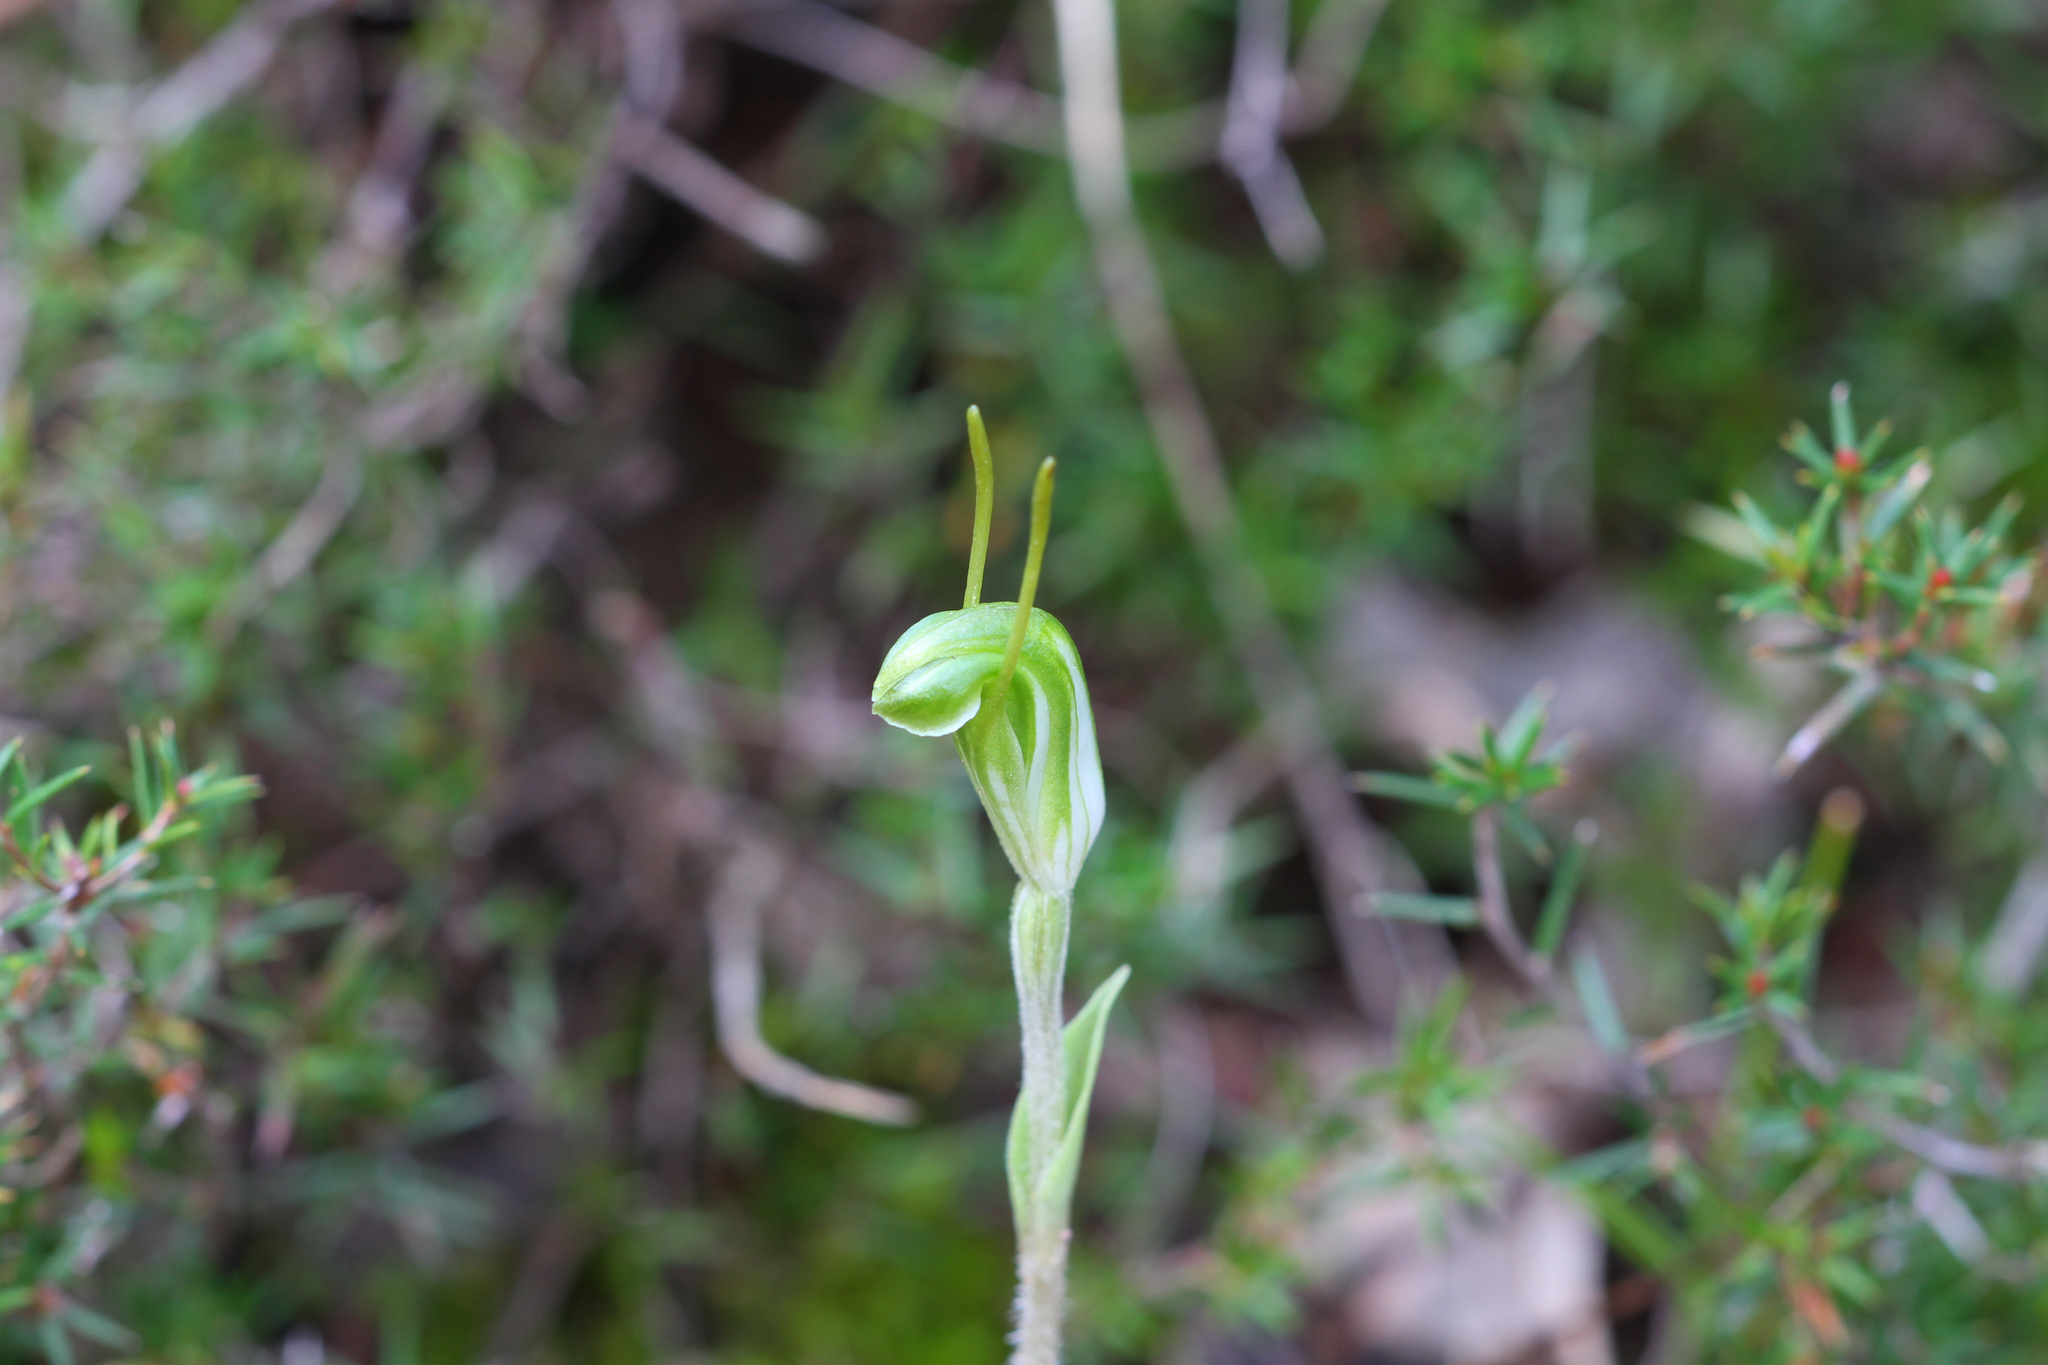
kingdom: Plantae
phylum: Tracheophyta
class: Liliopsida
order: Asparagales
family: Orchidaceae
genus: Pterostylis
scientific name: Pterostylis nana
